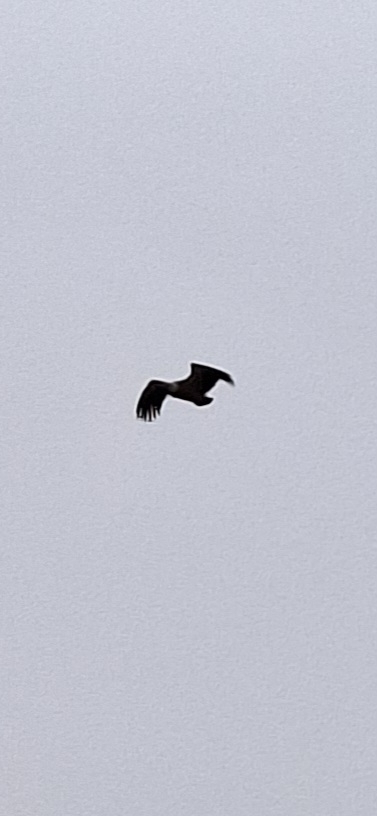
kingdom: Animalia
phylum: Chordata
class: Aves
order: Accipitriformes
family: Accipitridae
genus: Gyps
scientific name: Gyps fulvus
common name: Griffon vulture
